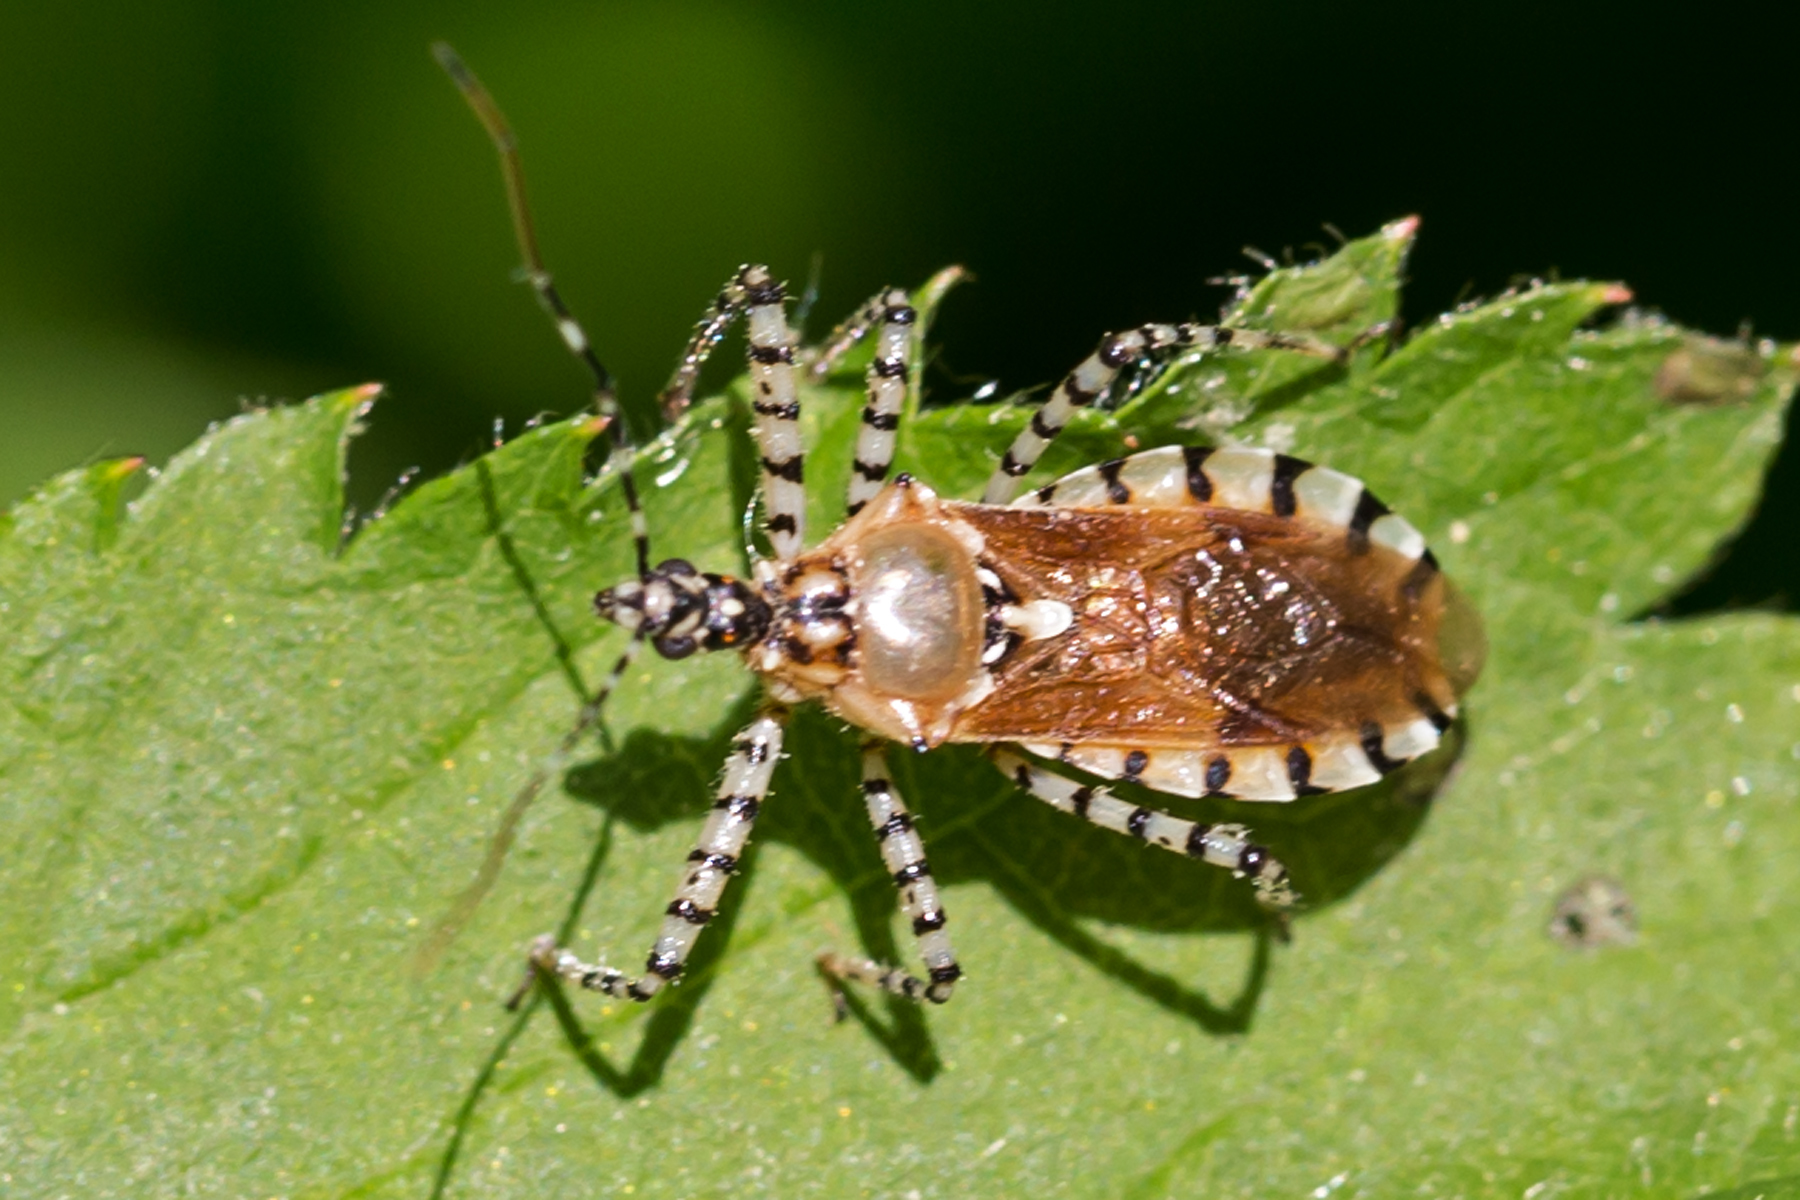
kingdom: Animalia
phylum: Arthropoda
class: Insecta
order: Hemiptera
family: Reduviidae
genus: Pselliopus
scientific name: Pselliopus cinctus
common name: Ringed assassin bug
